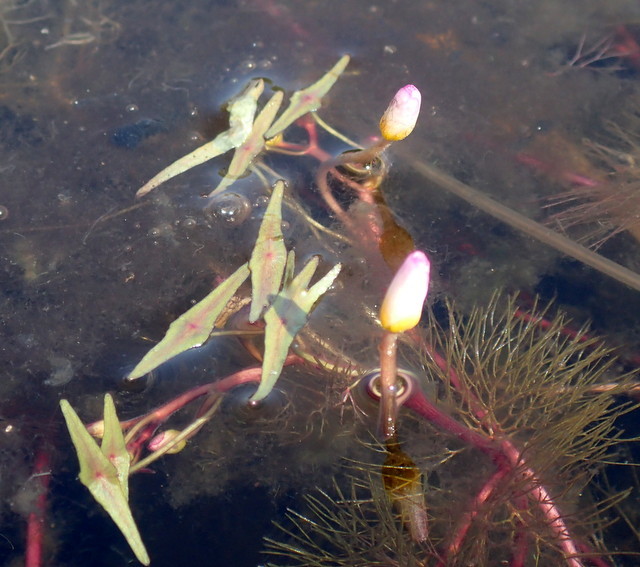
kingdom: Plantae
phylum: Tracheophyta
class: Magnoliopsida
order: Nymphaeales
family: Cabombaceae
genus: Cabomba
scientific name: Cabomba caroliniana
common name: Fanwort
